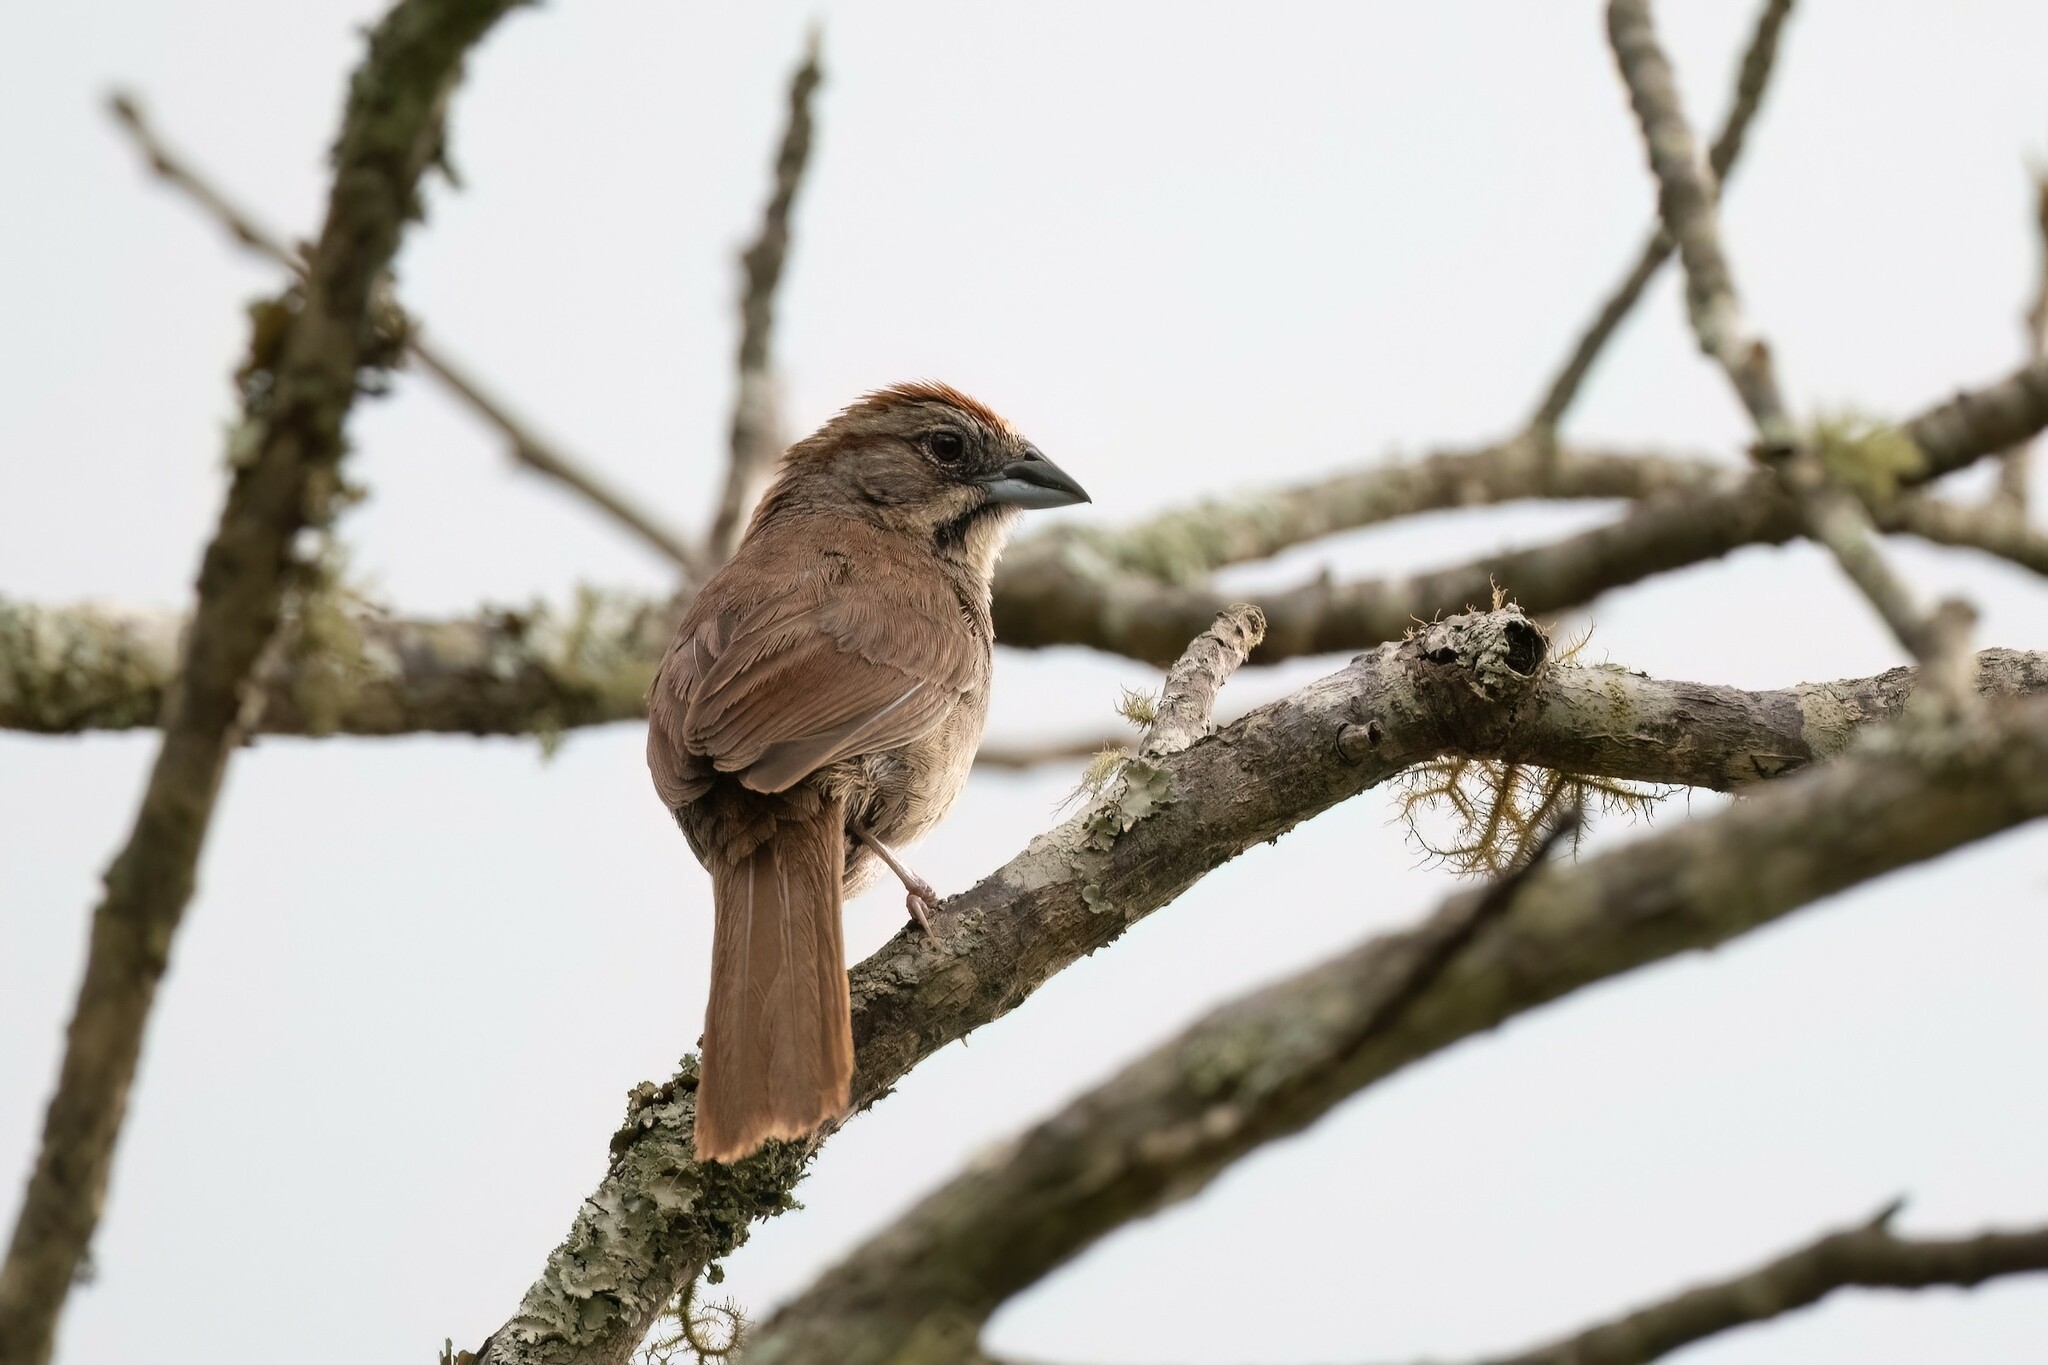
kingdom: Animalia
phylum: Chordata
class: Aves
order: Passeriformes
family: Passerellidae
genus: Aimophila
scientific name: Aimophila rufescens
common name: Rusty sparrow
